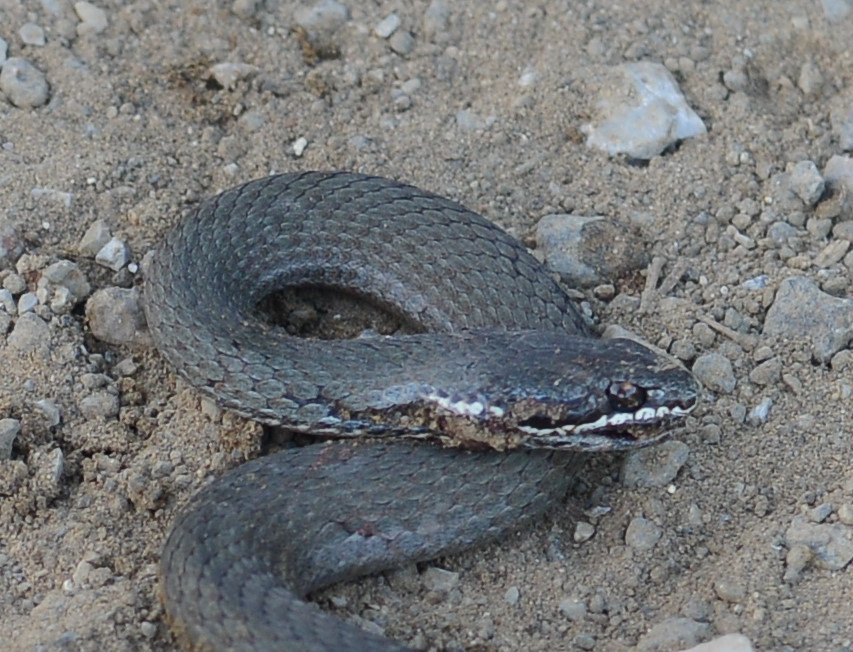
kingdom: Animalia
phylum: Chordata
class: Squamata
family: Elapidae
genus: Drysdalia
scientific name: Drysdalia coronoides
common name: White-lipped snake
